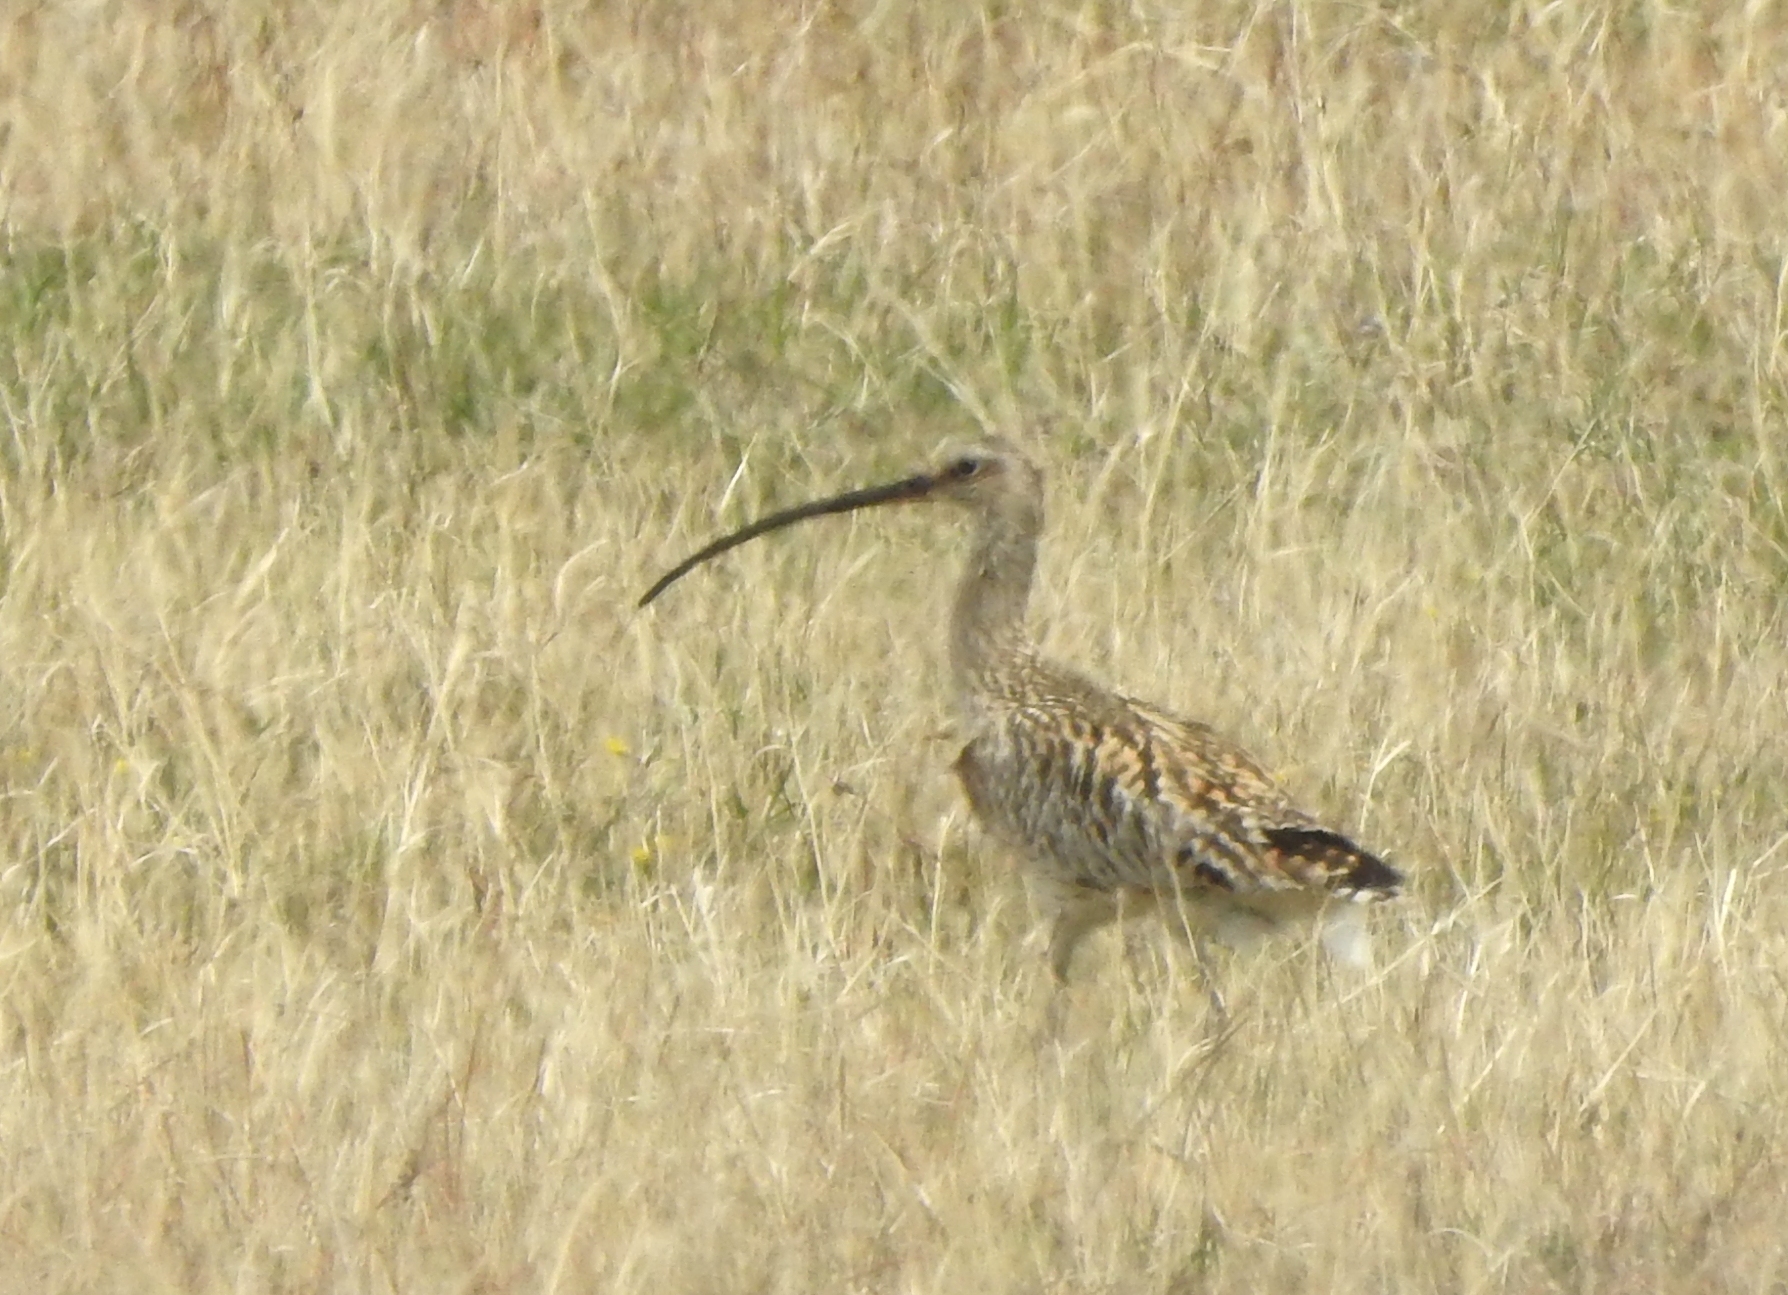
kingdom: Animalia
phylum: Chordata
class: Aves
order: Charadriiformes
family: Scolopacidae
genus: Numenius
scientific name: Numenius arquata
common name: Eurasian curlew
